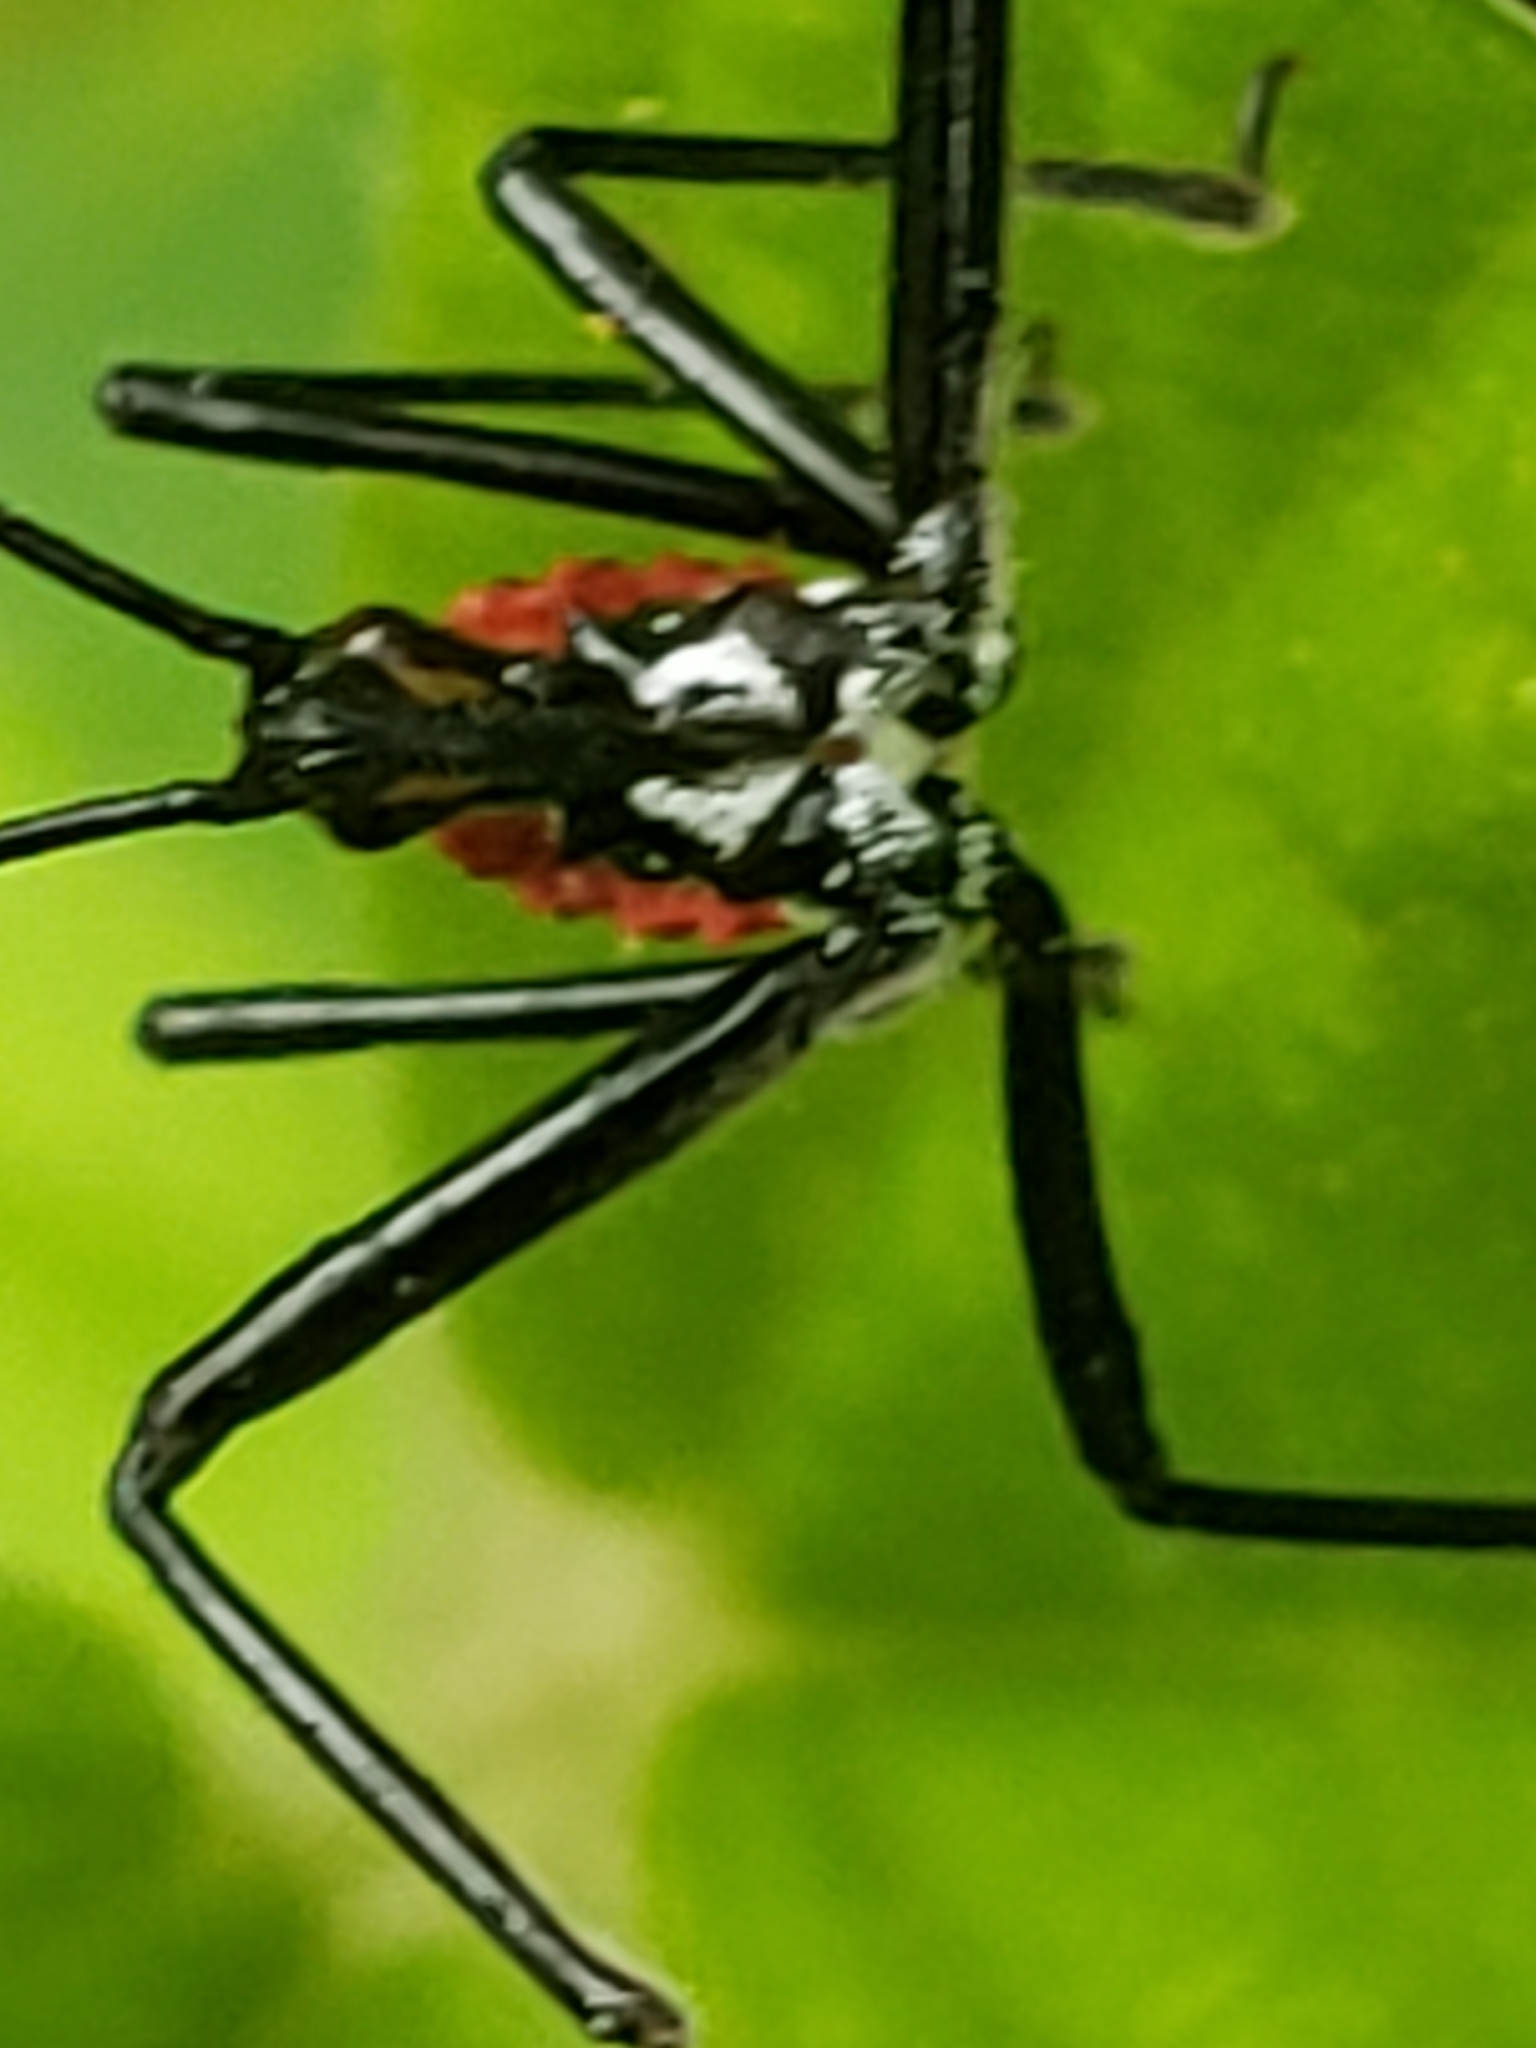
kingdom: Animalia
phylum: Arthropoda
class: Insecta
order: Hemiptera
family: Reduviidae
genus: Arilus
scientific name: Arilus cristatus
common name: North american wheel bug
